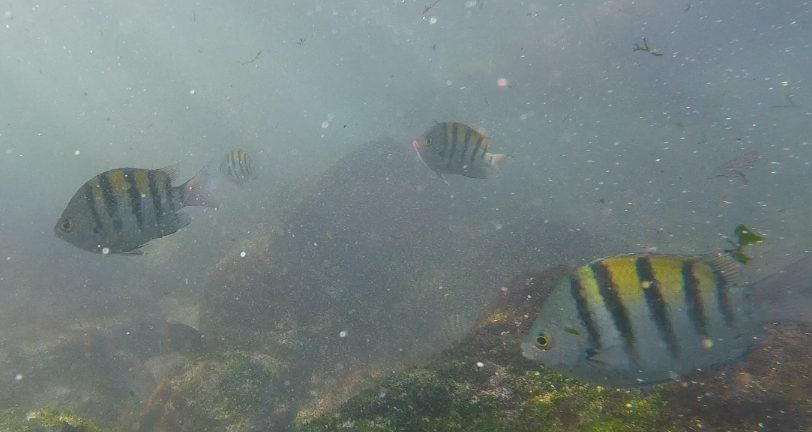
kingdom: Animalia
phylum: Chordata
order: Perciformes
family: Pomacentridae
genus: Abudefduf
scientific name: Abudefduf troschelii
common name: Panamic sergeant major
